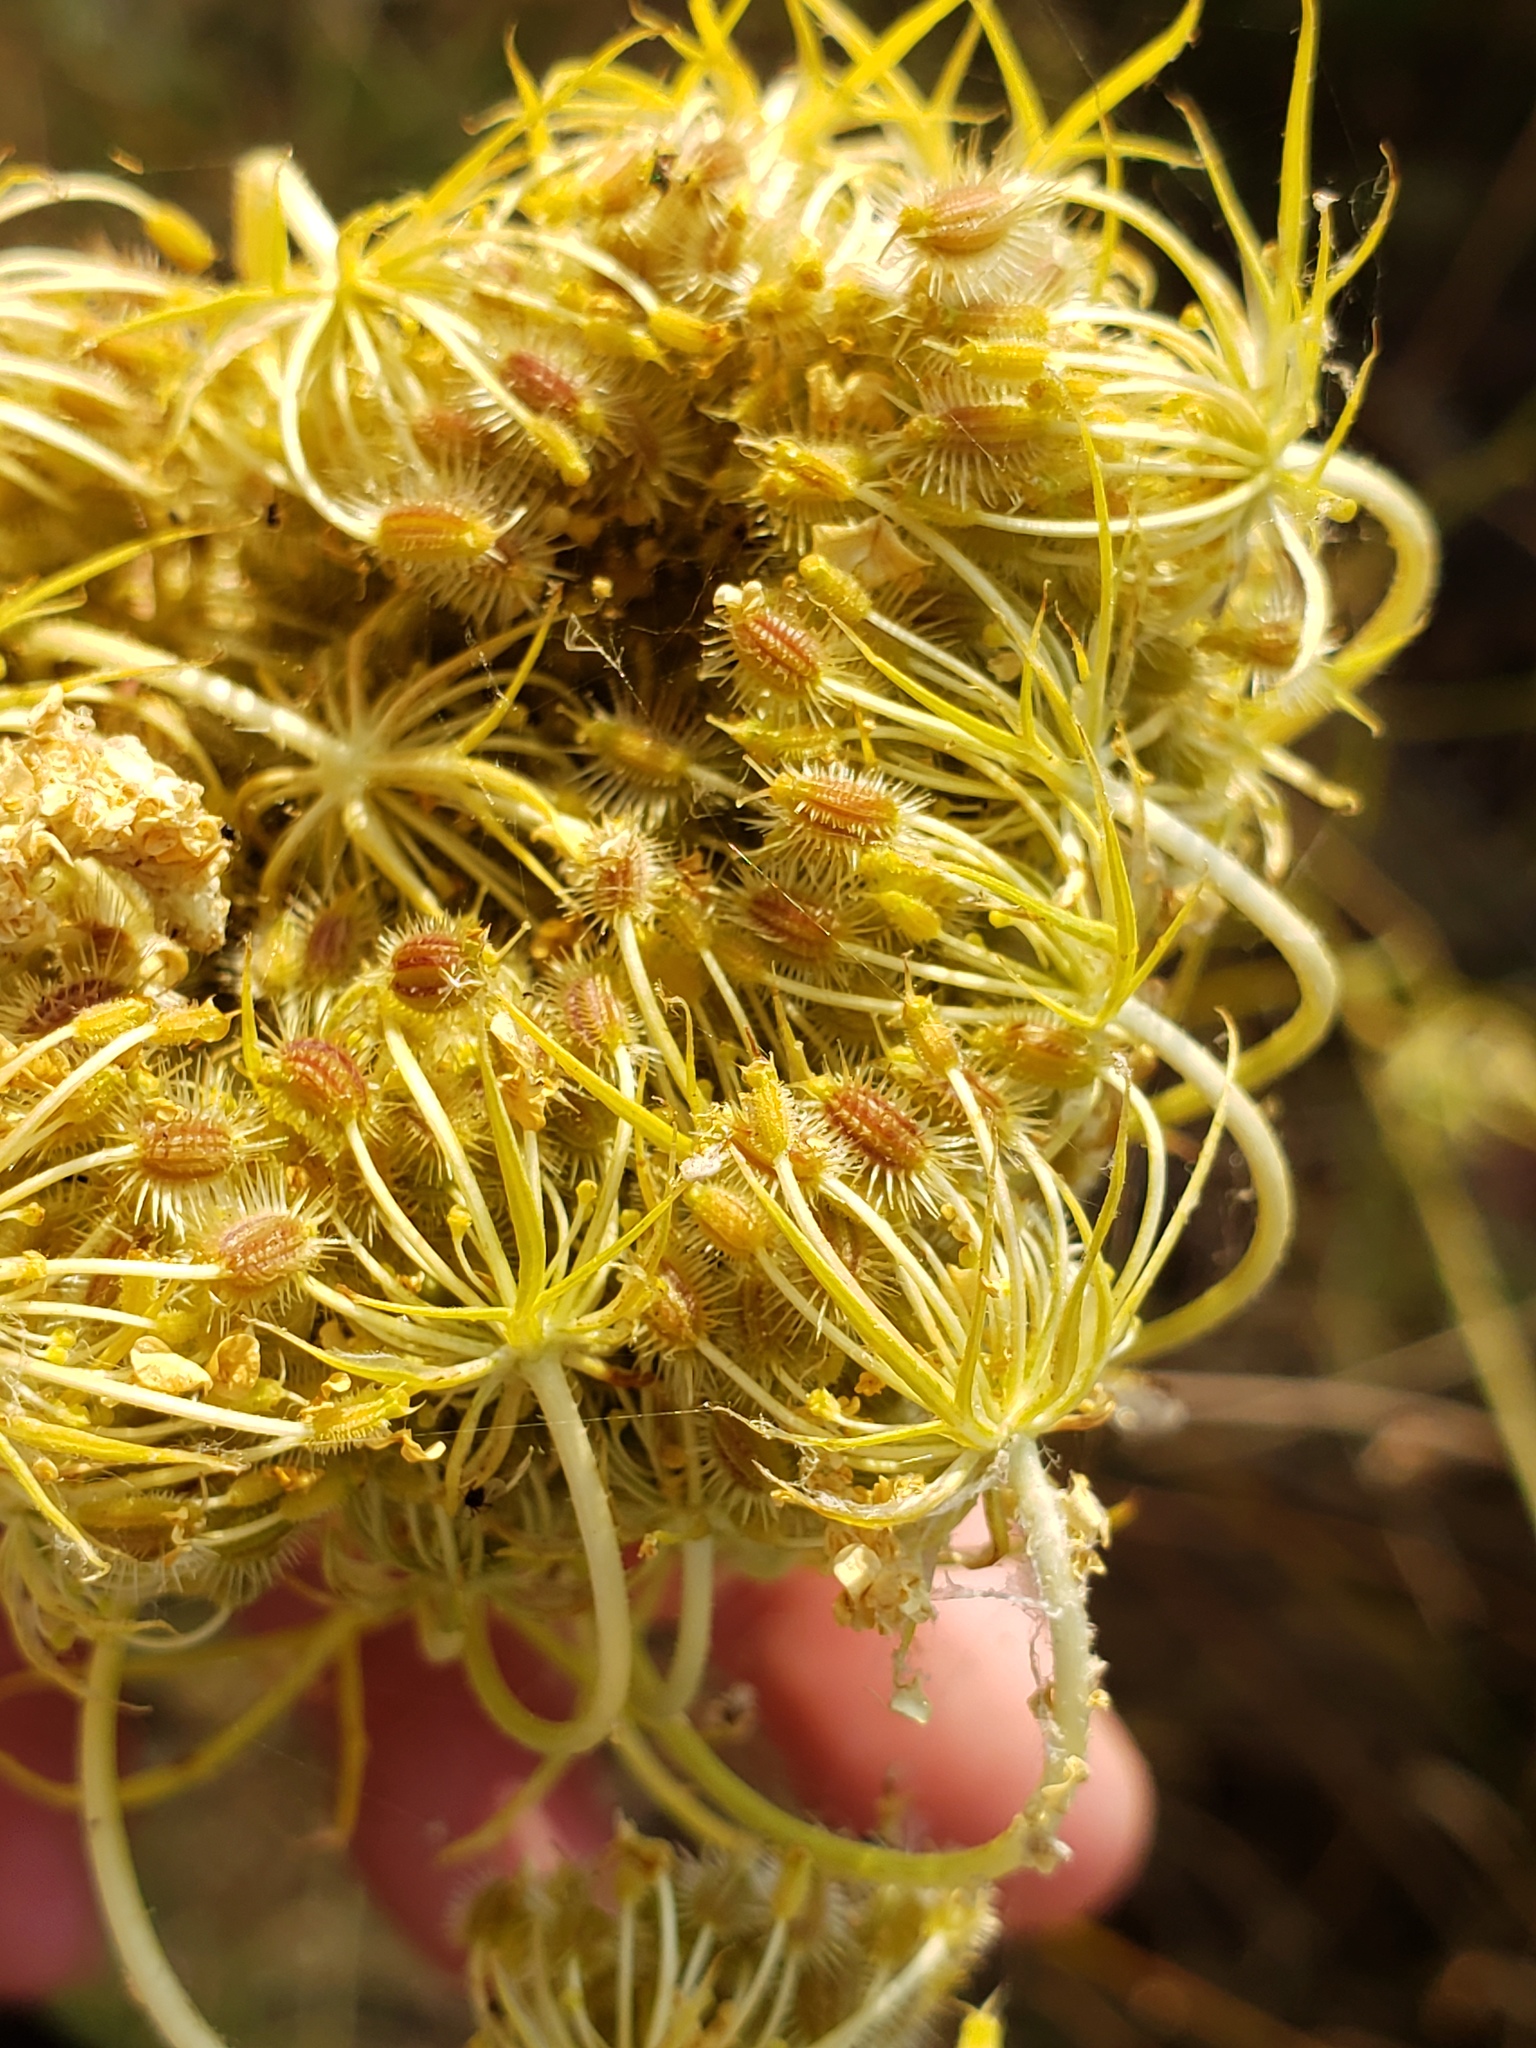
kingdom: Plantae
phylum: Tracheophyta
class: Magnoliopsida
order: Apiales
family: Apiaceae
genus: Daucus
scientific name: Daucus carota
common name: Wild carrot
